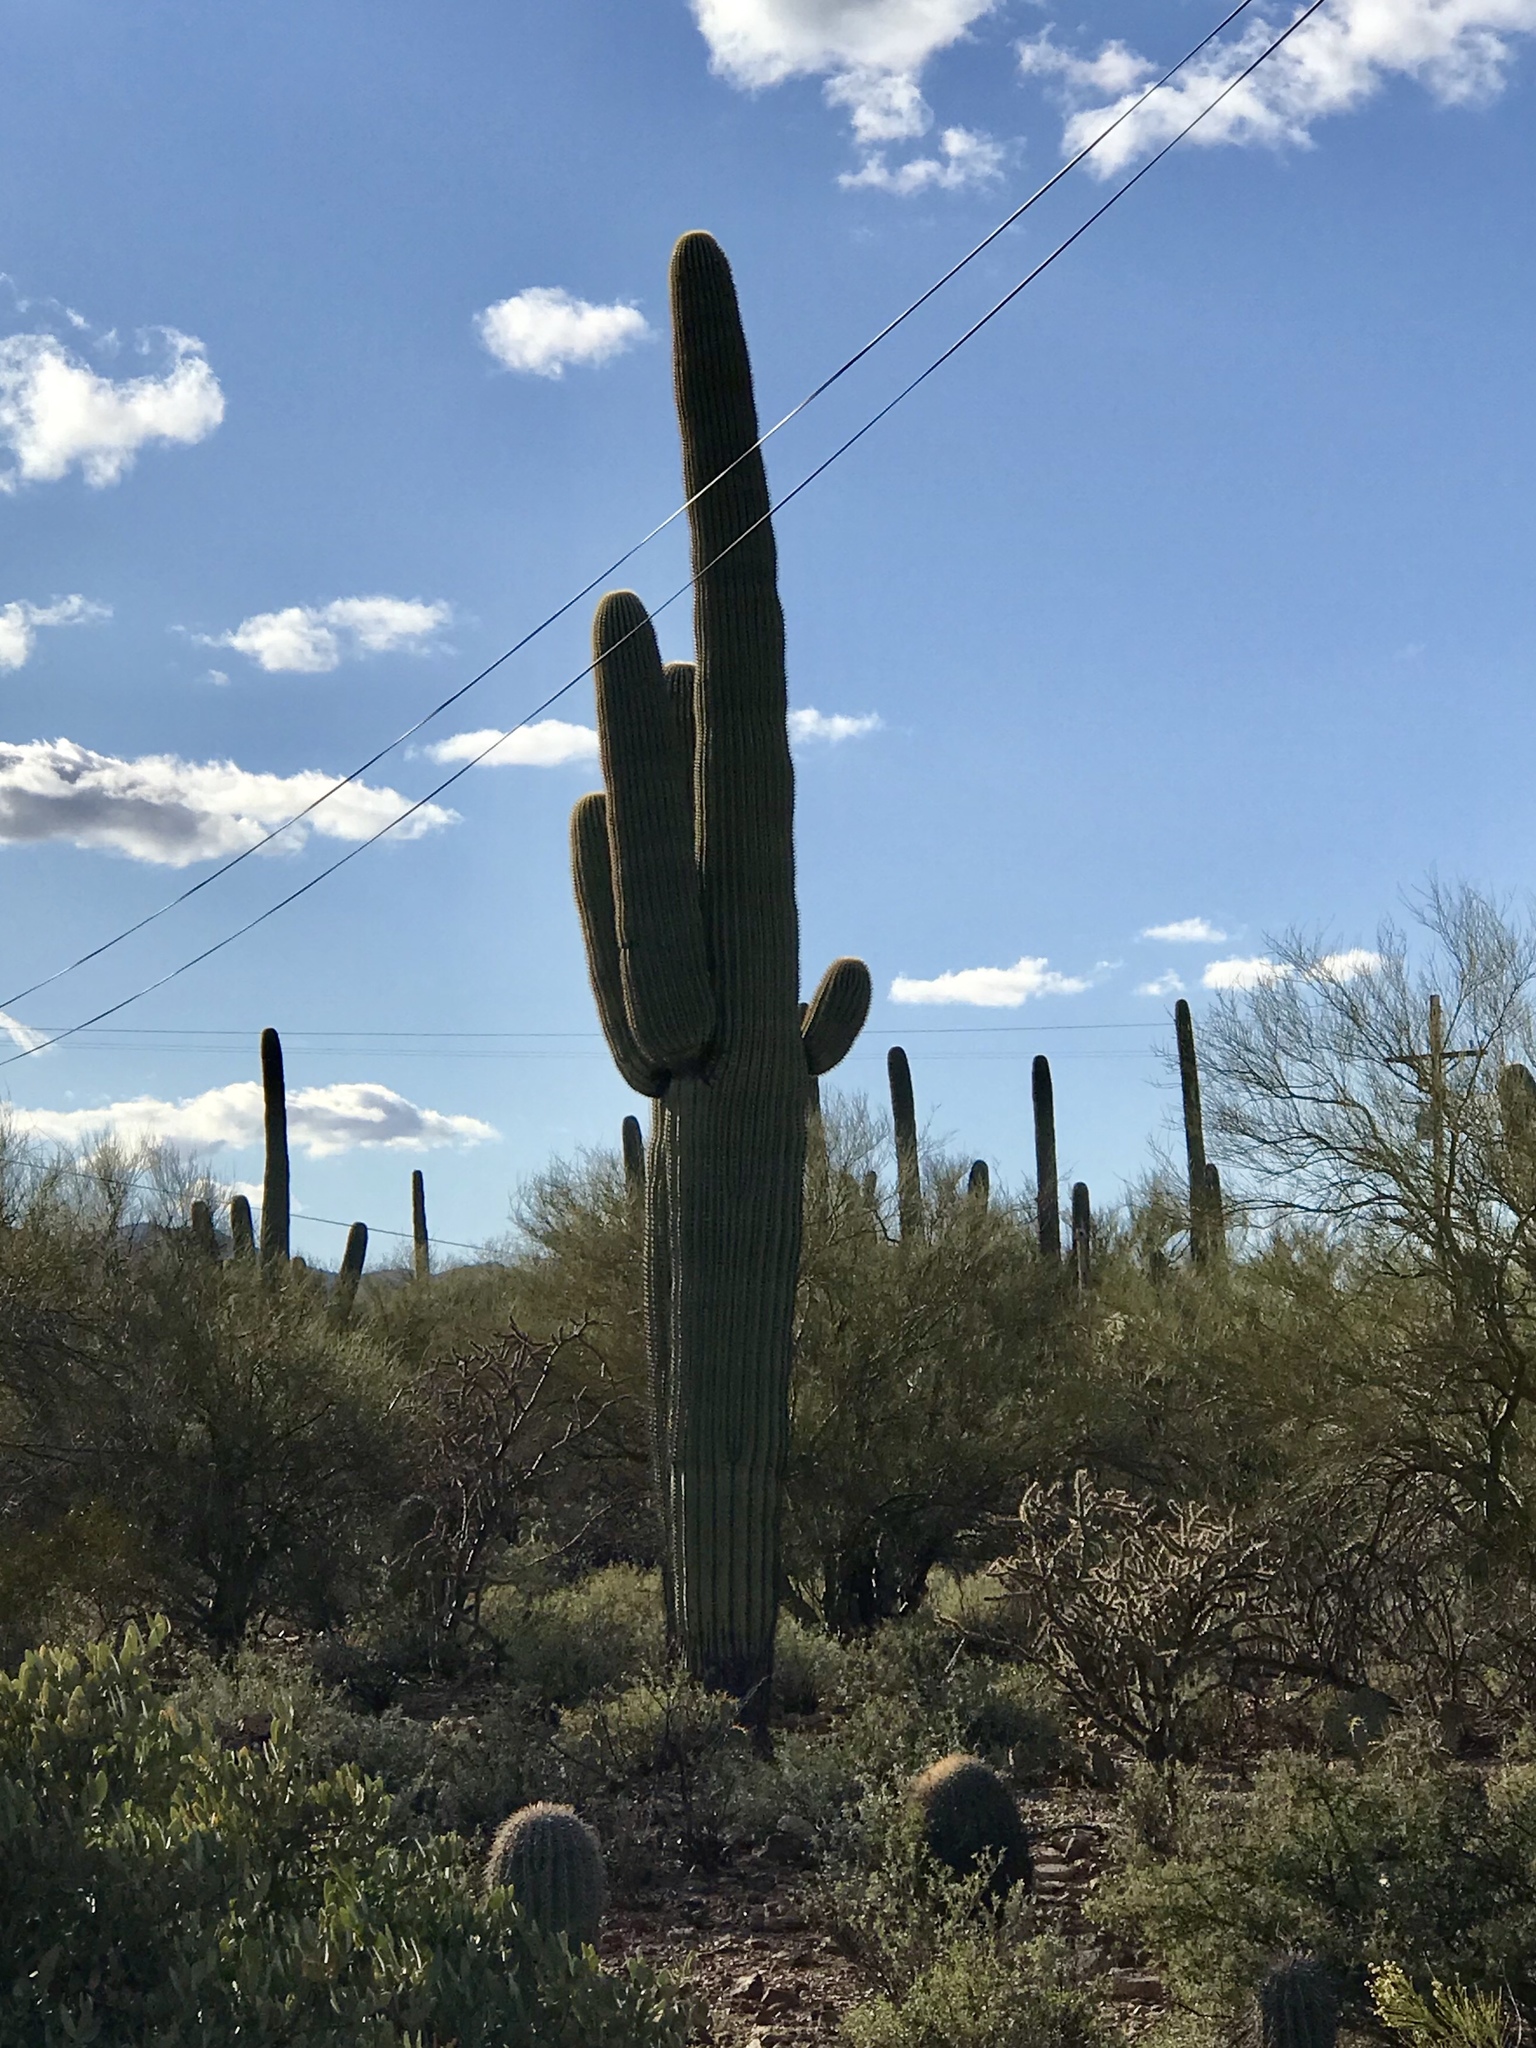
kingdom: Plantae
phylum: Tracheophyta
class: Magnoliopsida
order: Caryophyllales
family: Cactaceae
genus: Carnegiea
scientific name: Carnegiea gigantea
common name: Saguaro
